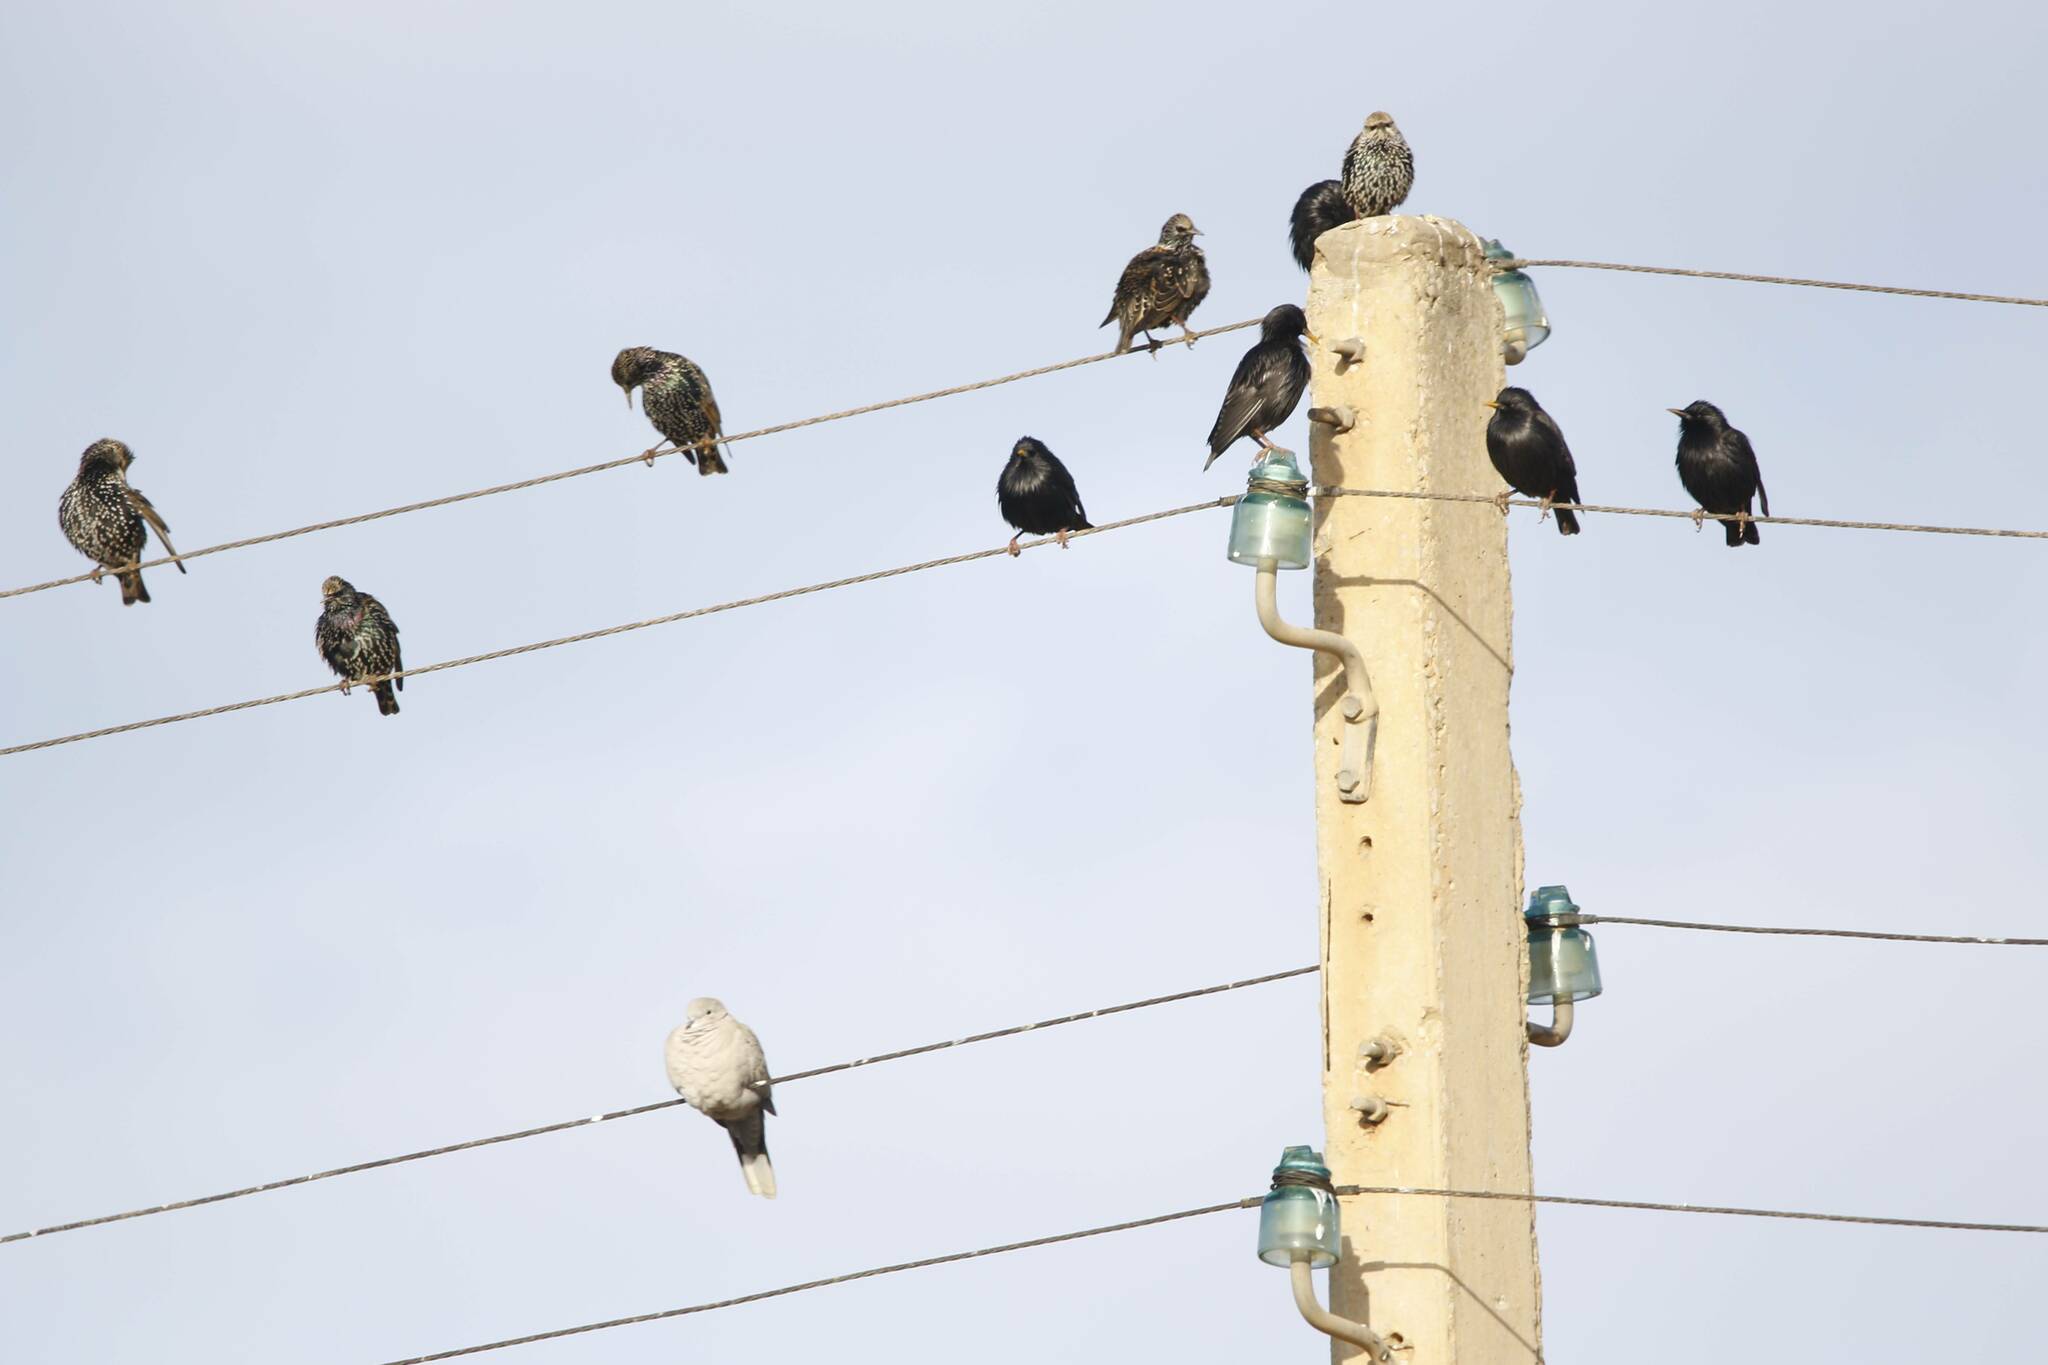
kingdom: Animalia
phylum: Chordata
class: Aves
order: Passeriformes
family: Sturnidae
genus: Sturnus
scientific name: Sturnus vulgaris
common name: Common starling
